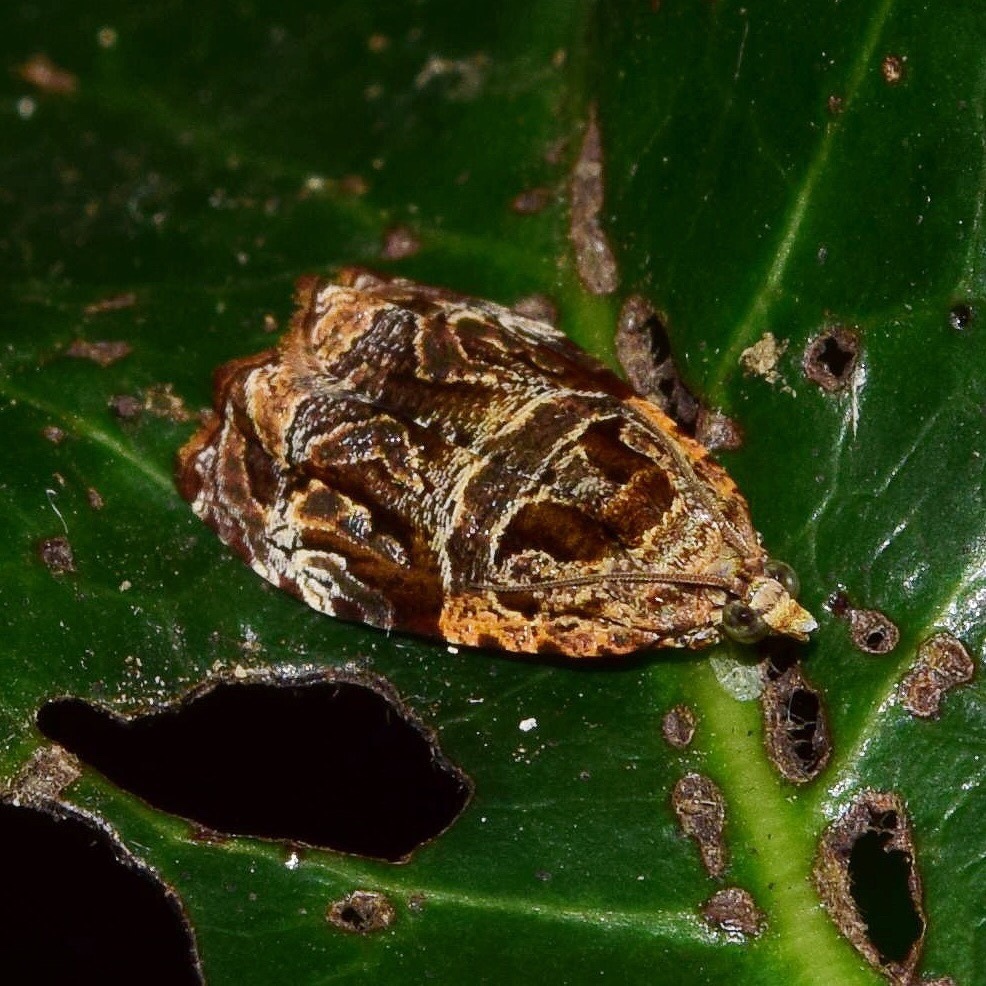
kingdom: Animalia
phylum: Arthropoda
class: Insecta
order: Lepidoptera
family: Tortricidae
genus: Eccopsis
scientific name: Eccopsis incultana
